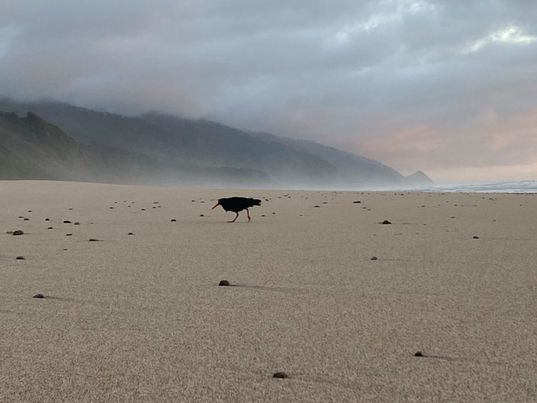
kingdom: Animalia
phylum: Chordata
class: Aves
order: Charadriiformes
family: Haematopodidae
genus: Haematopus
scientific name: Haematopus unicolor
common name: Variable oystercatcher
